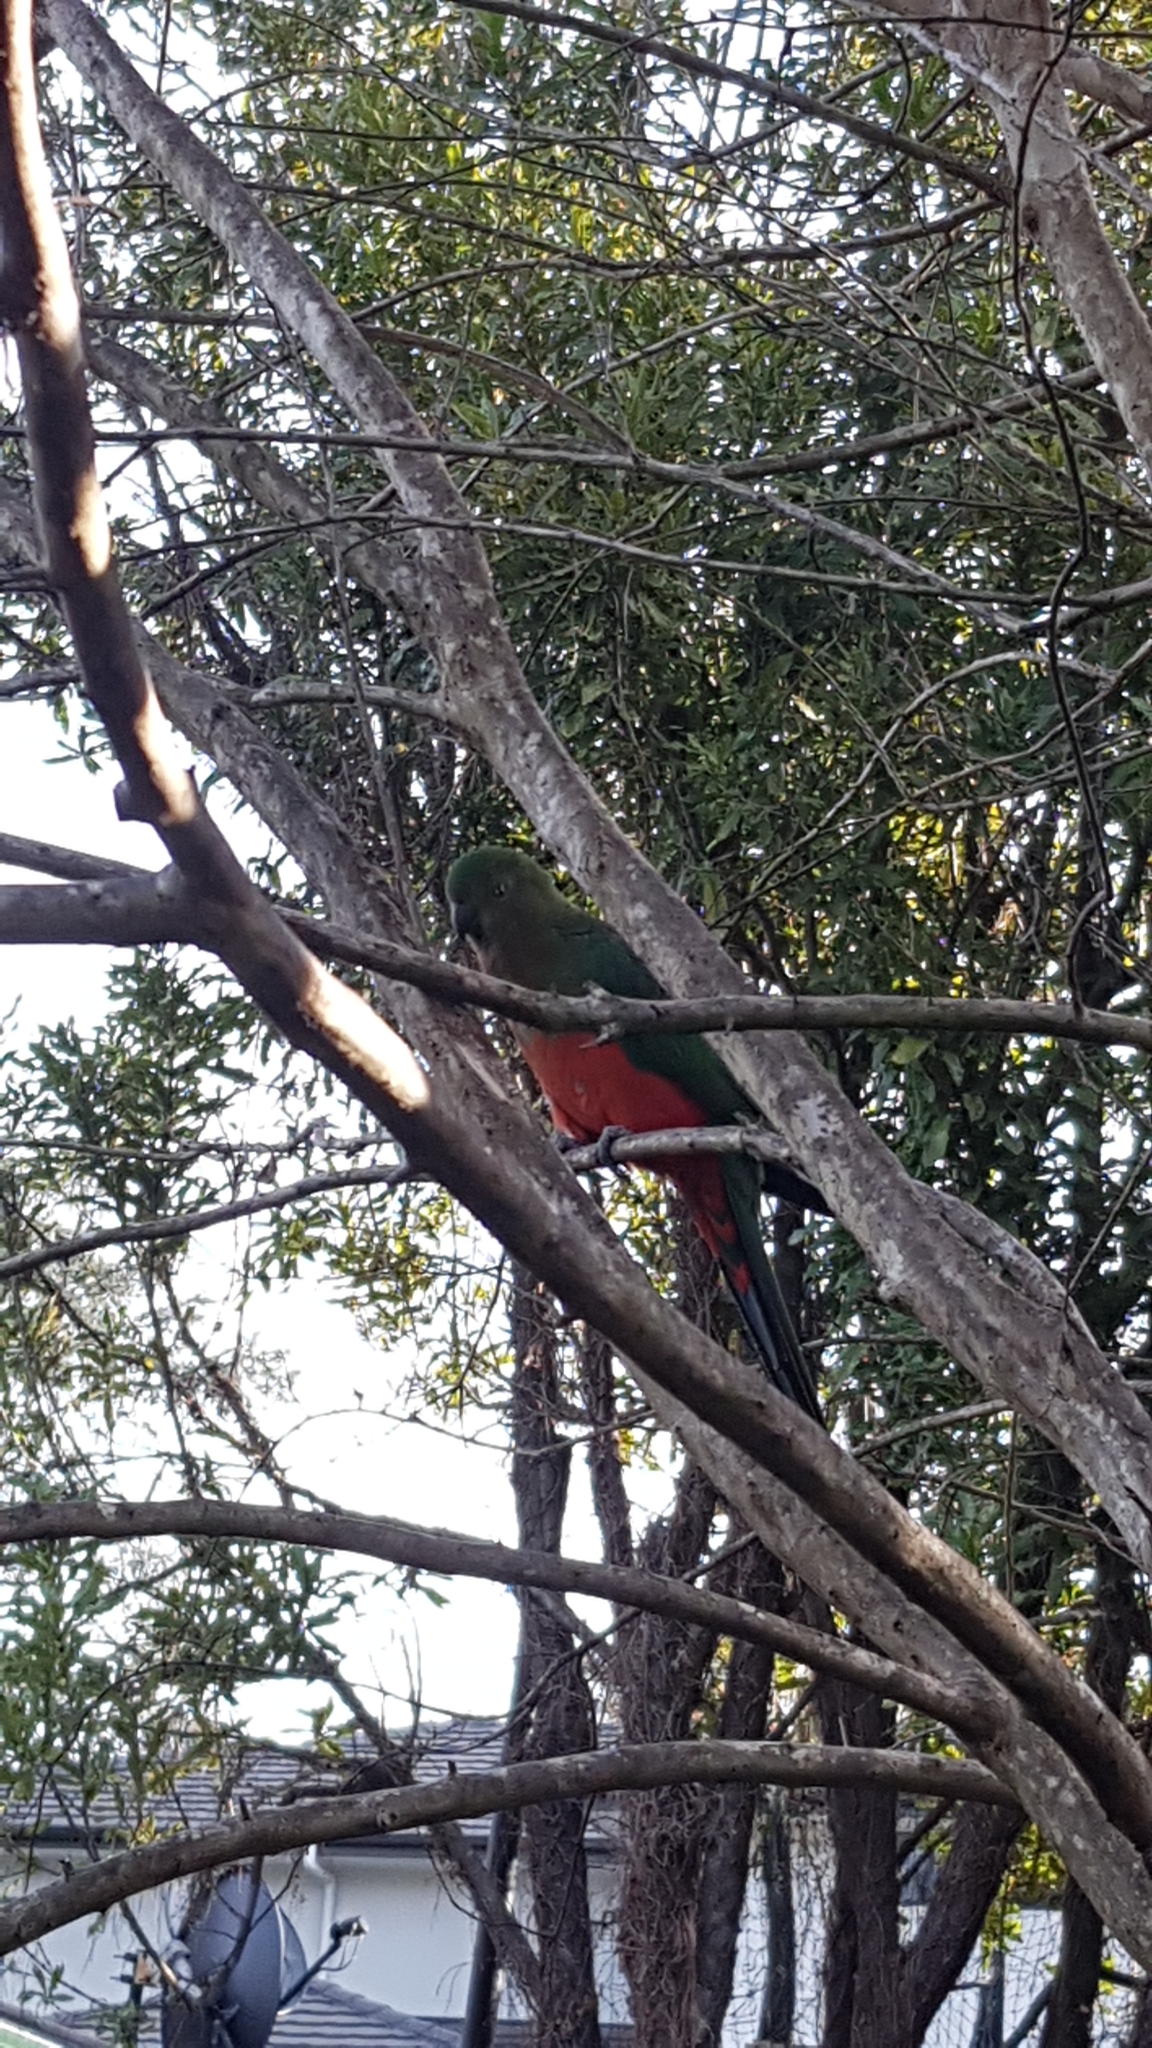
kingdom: Animalia
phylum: Chordata
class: Aves
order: Psittaciformes
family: Psittacidae
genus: Alisterus
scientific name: Alisterus scapularis
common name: Australian king parrot
